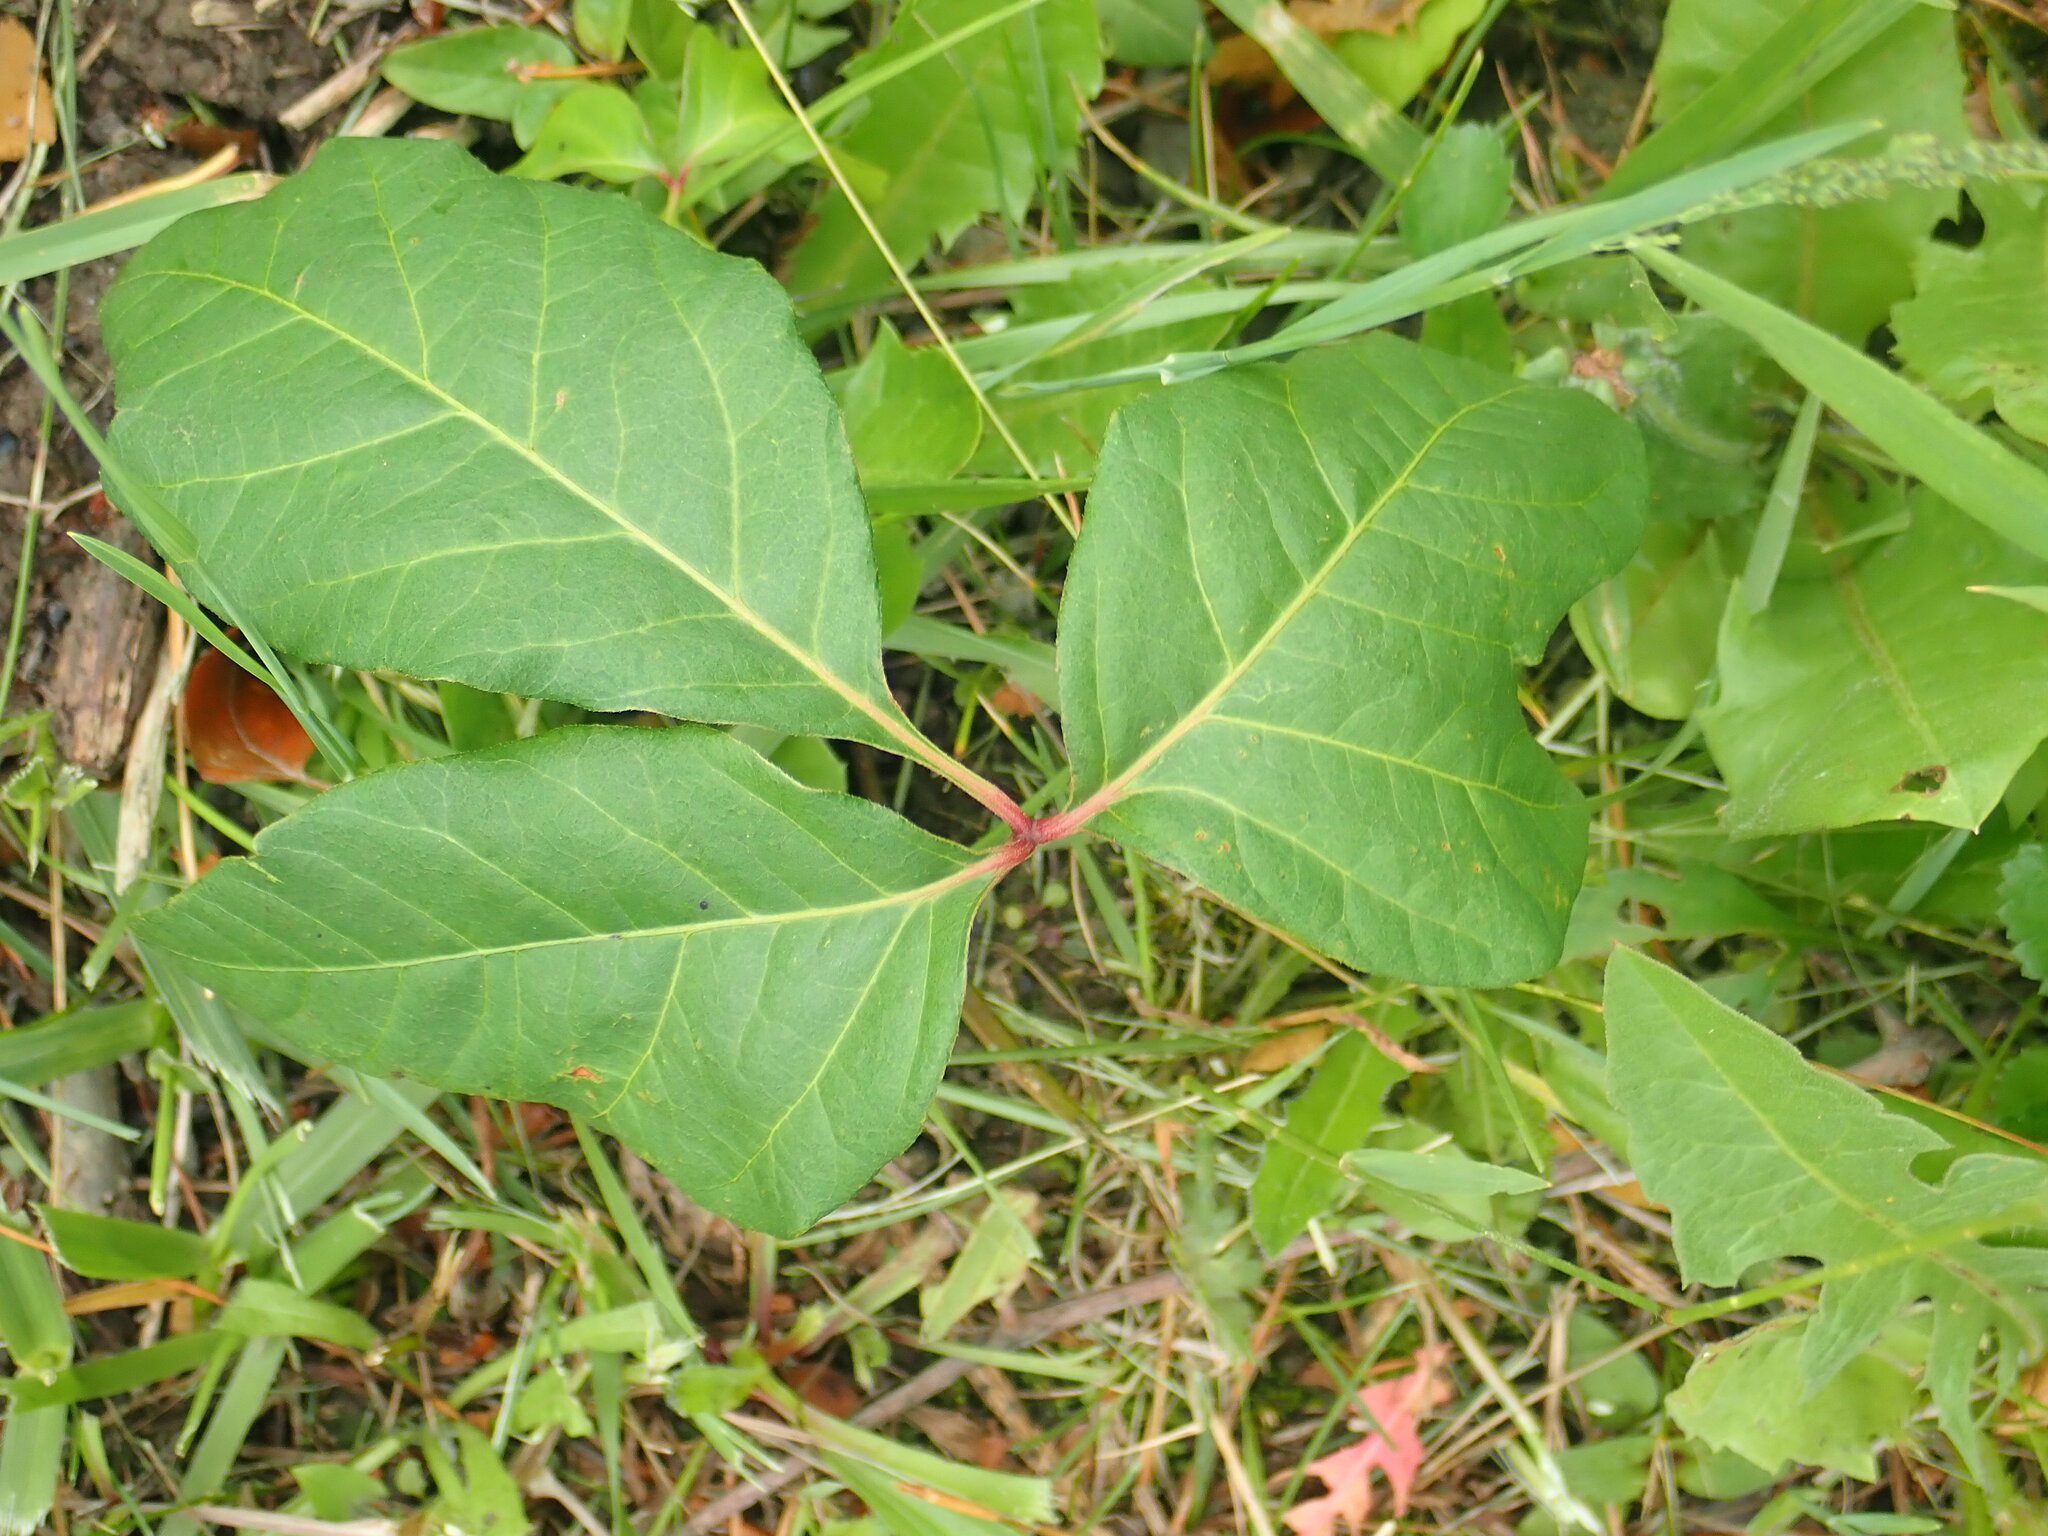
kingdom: Plantae
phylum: Tracheophyta
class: Magnoliopsida
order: Sapindales
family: Anacardiaceae
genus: Toxicodendron
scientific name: Toxicodendron radicans
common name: Poison ivy
